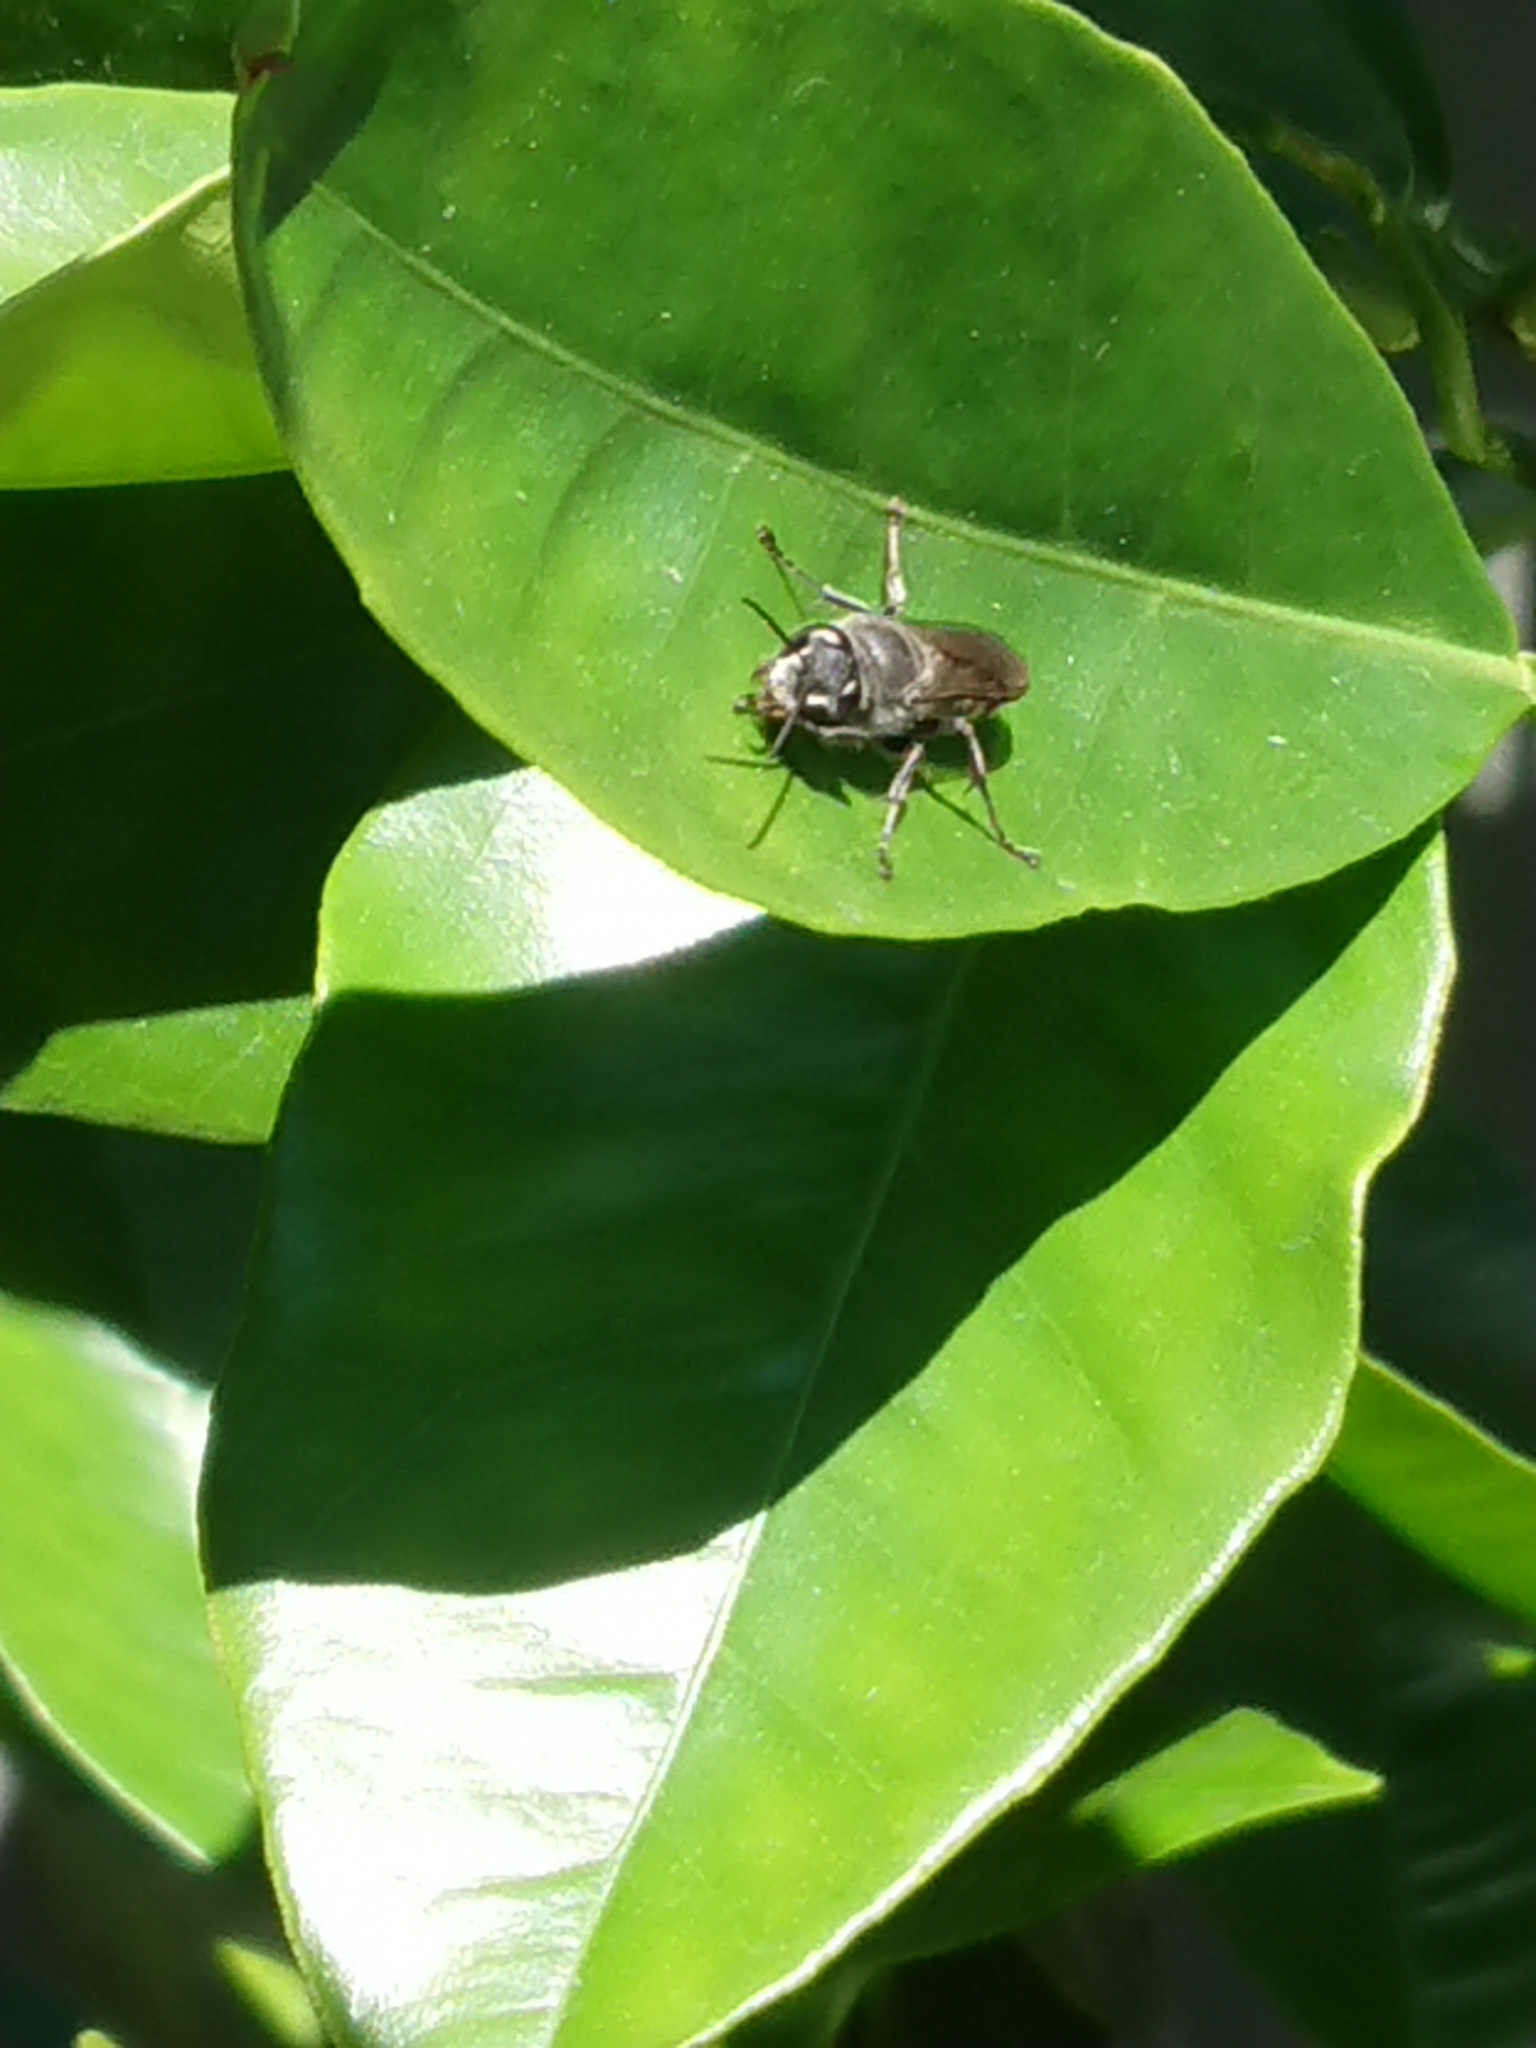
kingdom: Animalia
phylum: Arthropoda
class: Insecta
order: Hymenoptera
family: Crabronidae
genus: Pison
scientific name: Pison spinolae
